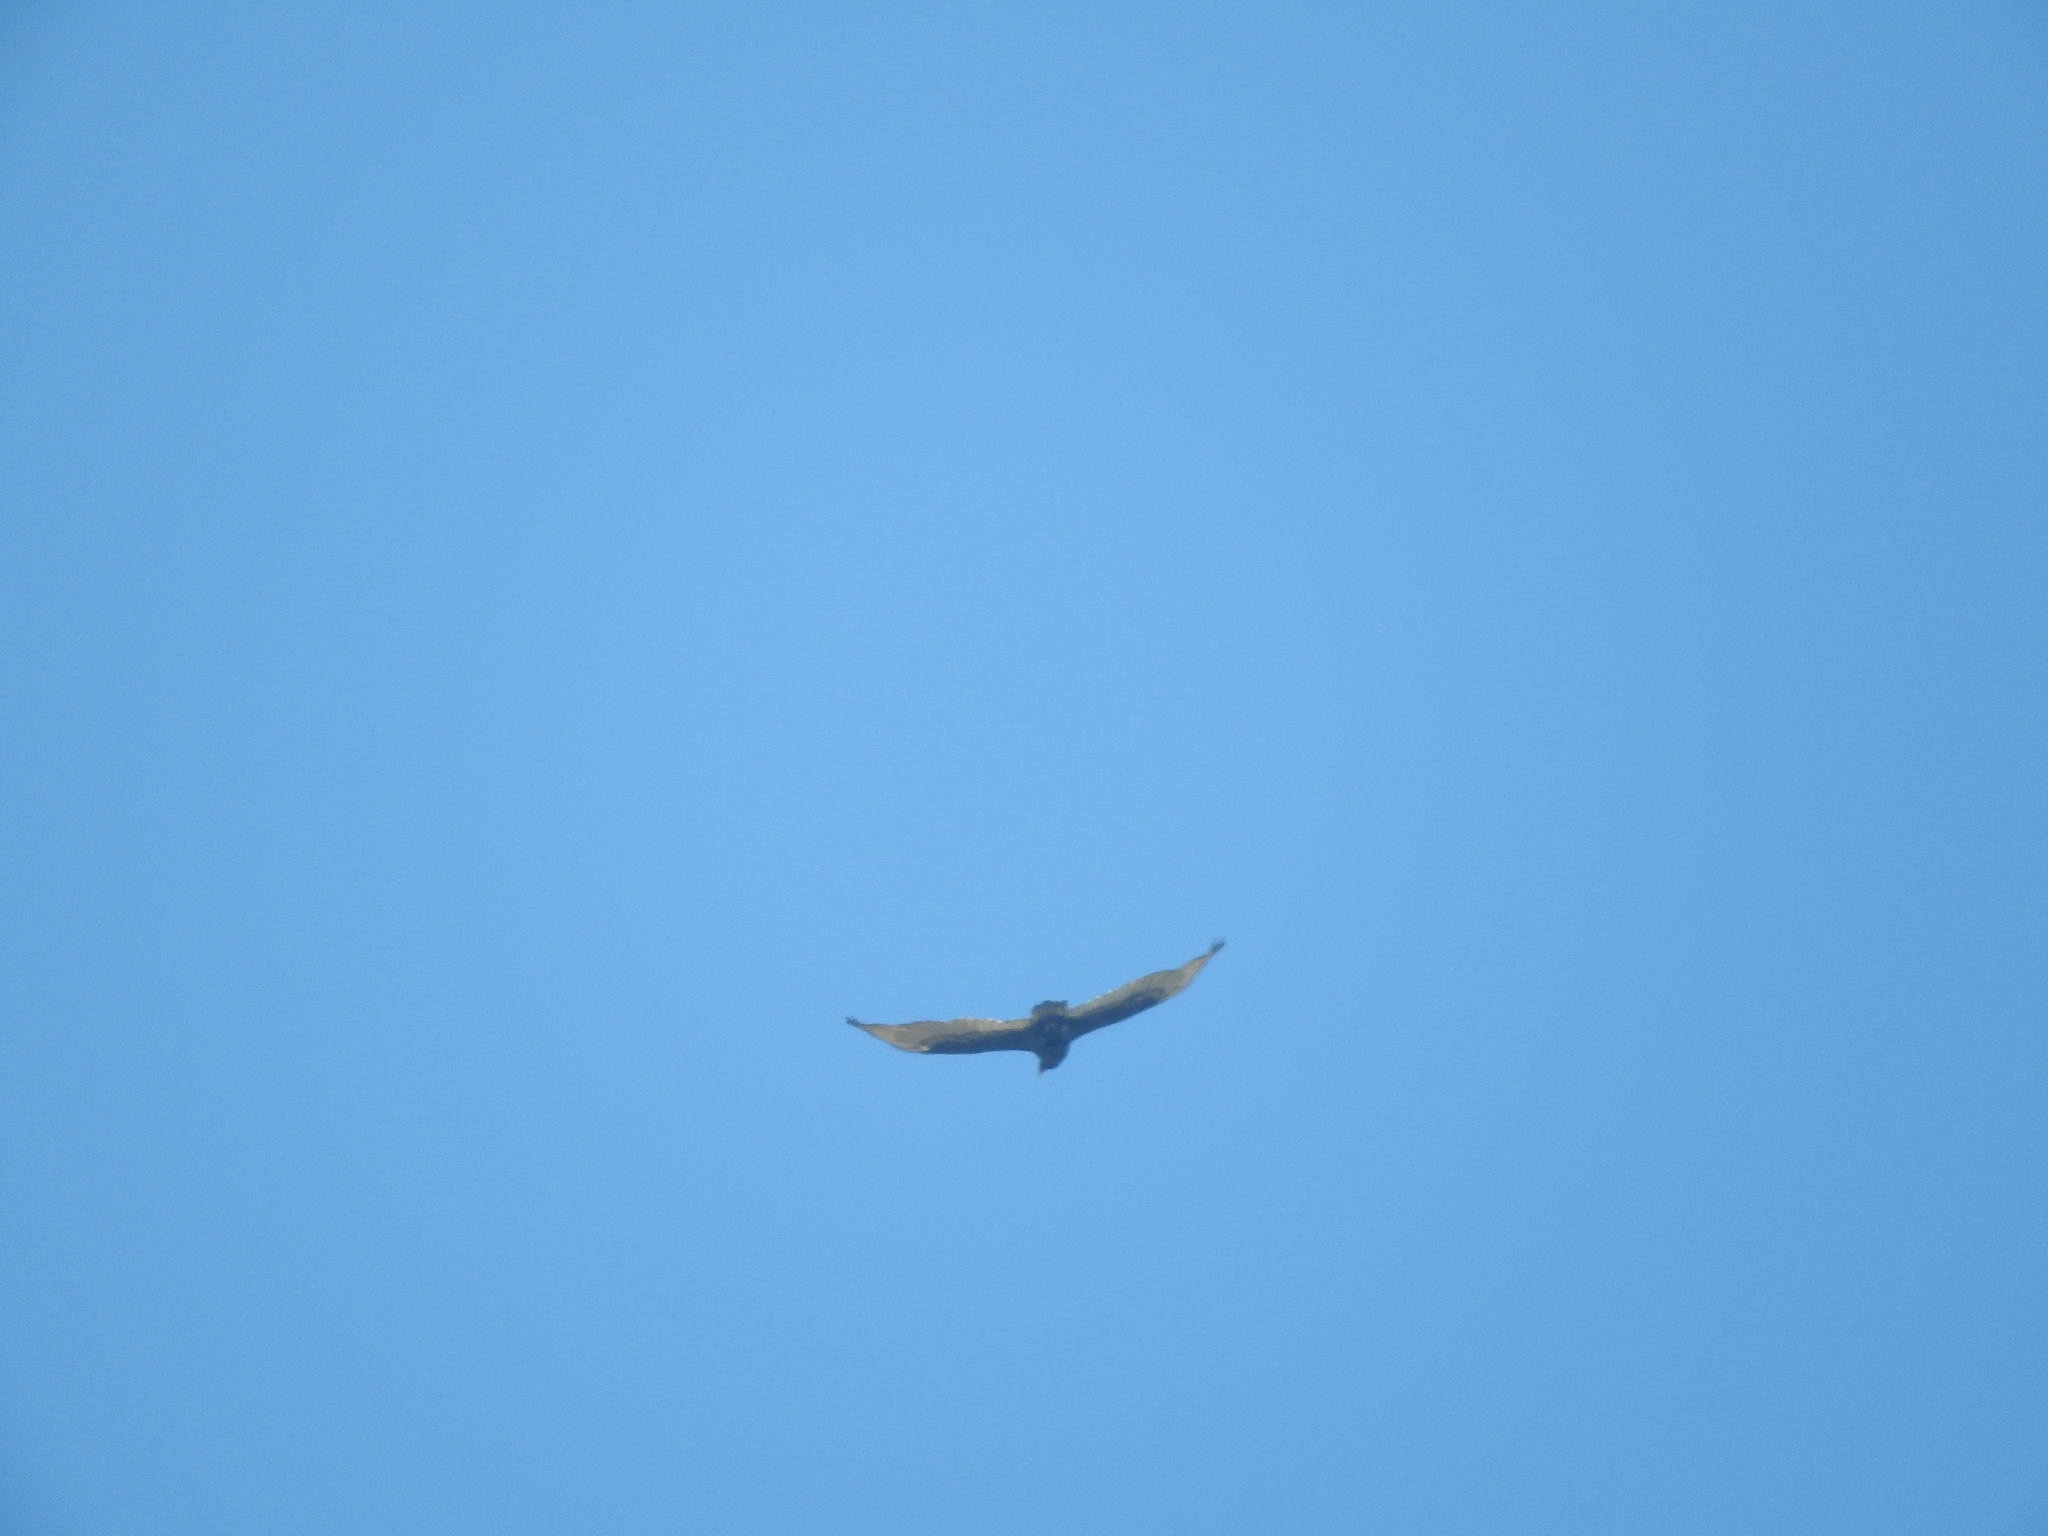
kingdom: Animalia
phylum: Chordata
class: Aves
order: Accipitriformes
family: Cathartidae
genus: Cathartes
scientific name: Cathartes aura
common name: Turkey vulture
